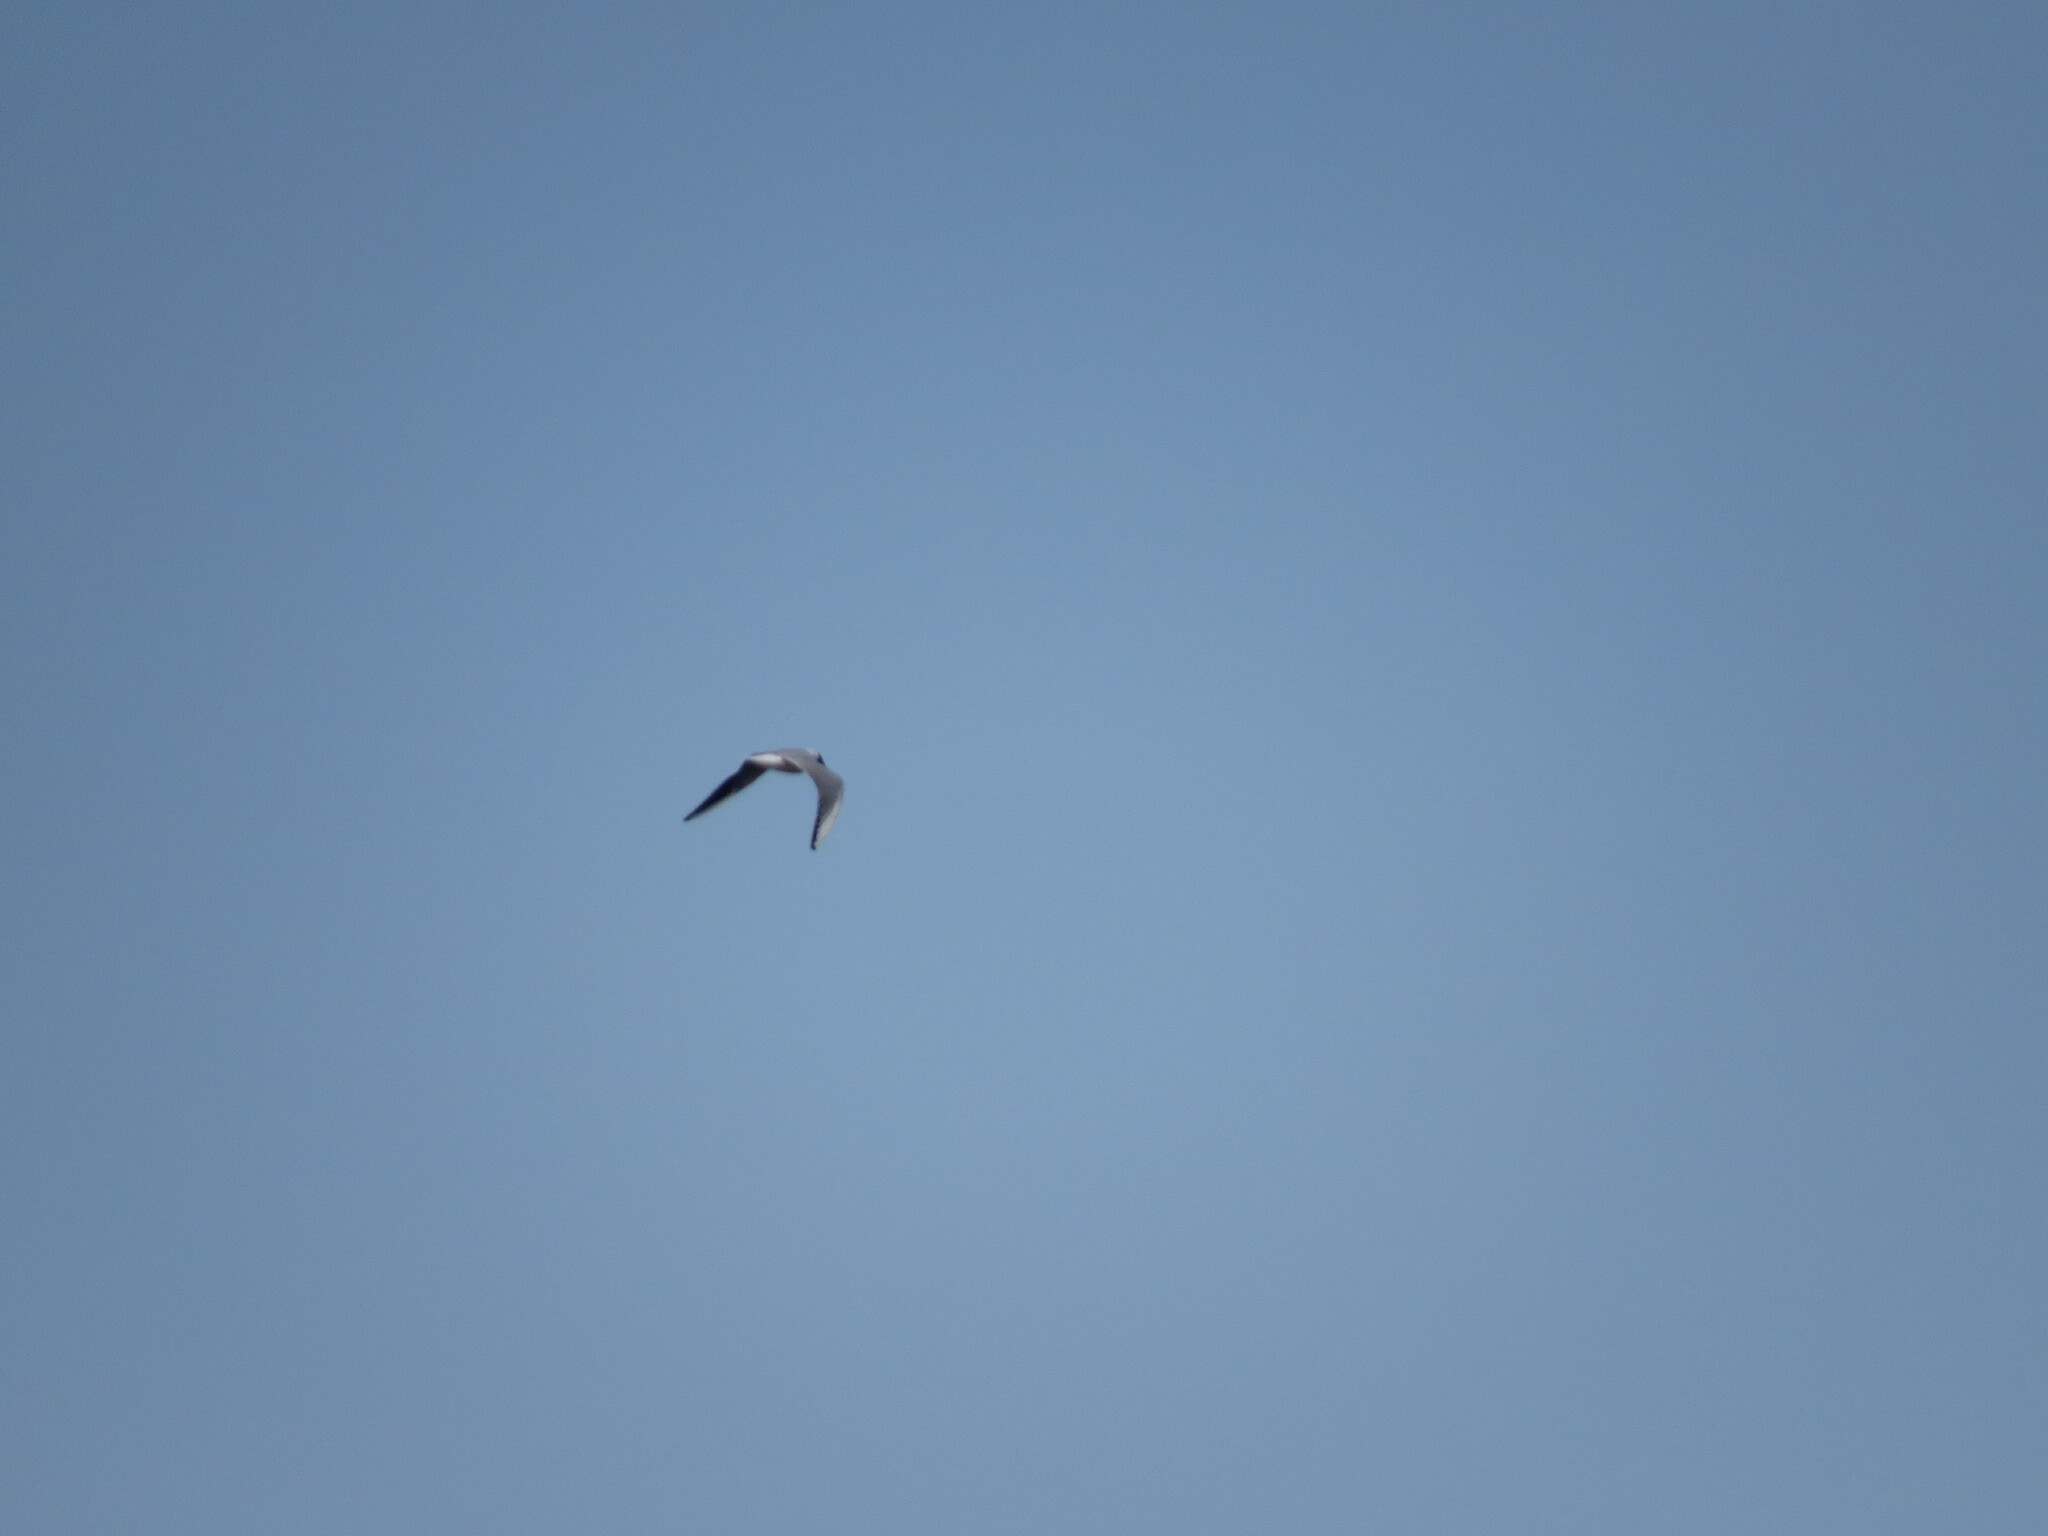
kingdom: Animalia
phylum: Chordata
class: Aves
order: Charadriiformes
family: Laridae
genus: Chroicocephalus
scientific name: Chroicocephalus ridibundus
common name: Black-headed gull
